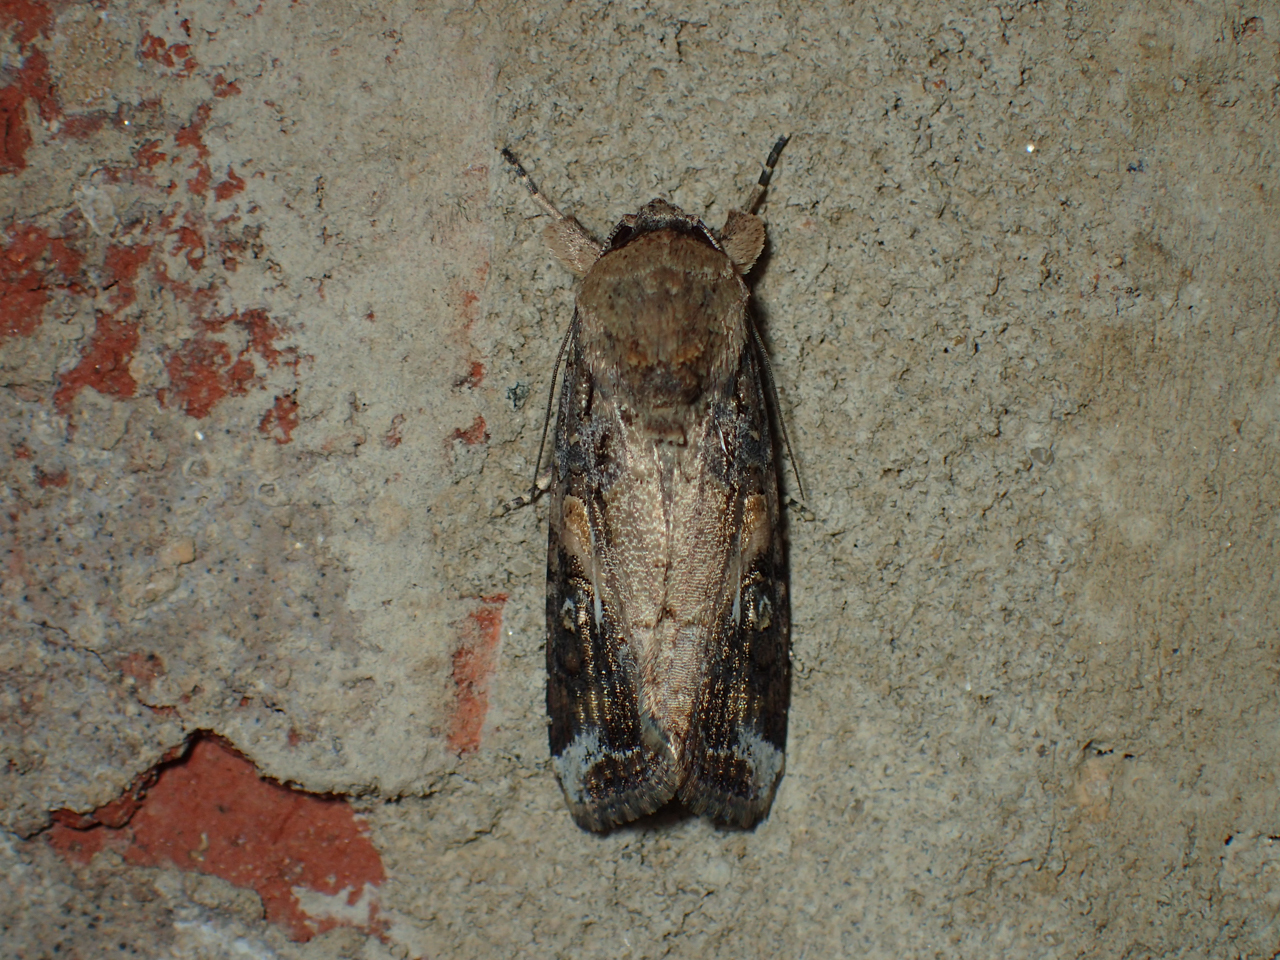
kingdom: Animalia
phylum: Arthropoda
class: Insecta
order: Lepidoptera
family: Noctuidae
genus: Spodoptera
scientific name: Spodoptera frugiperda
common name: Fall armyworm
